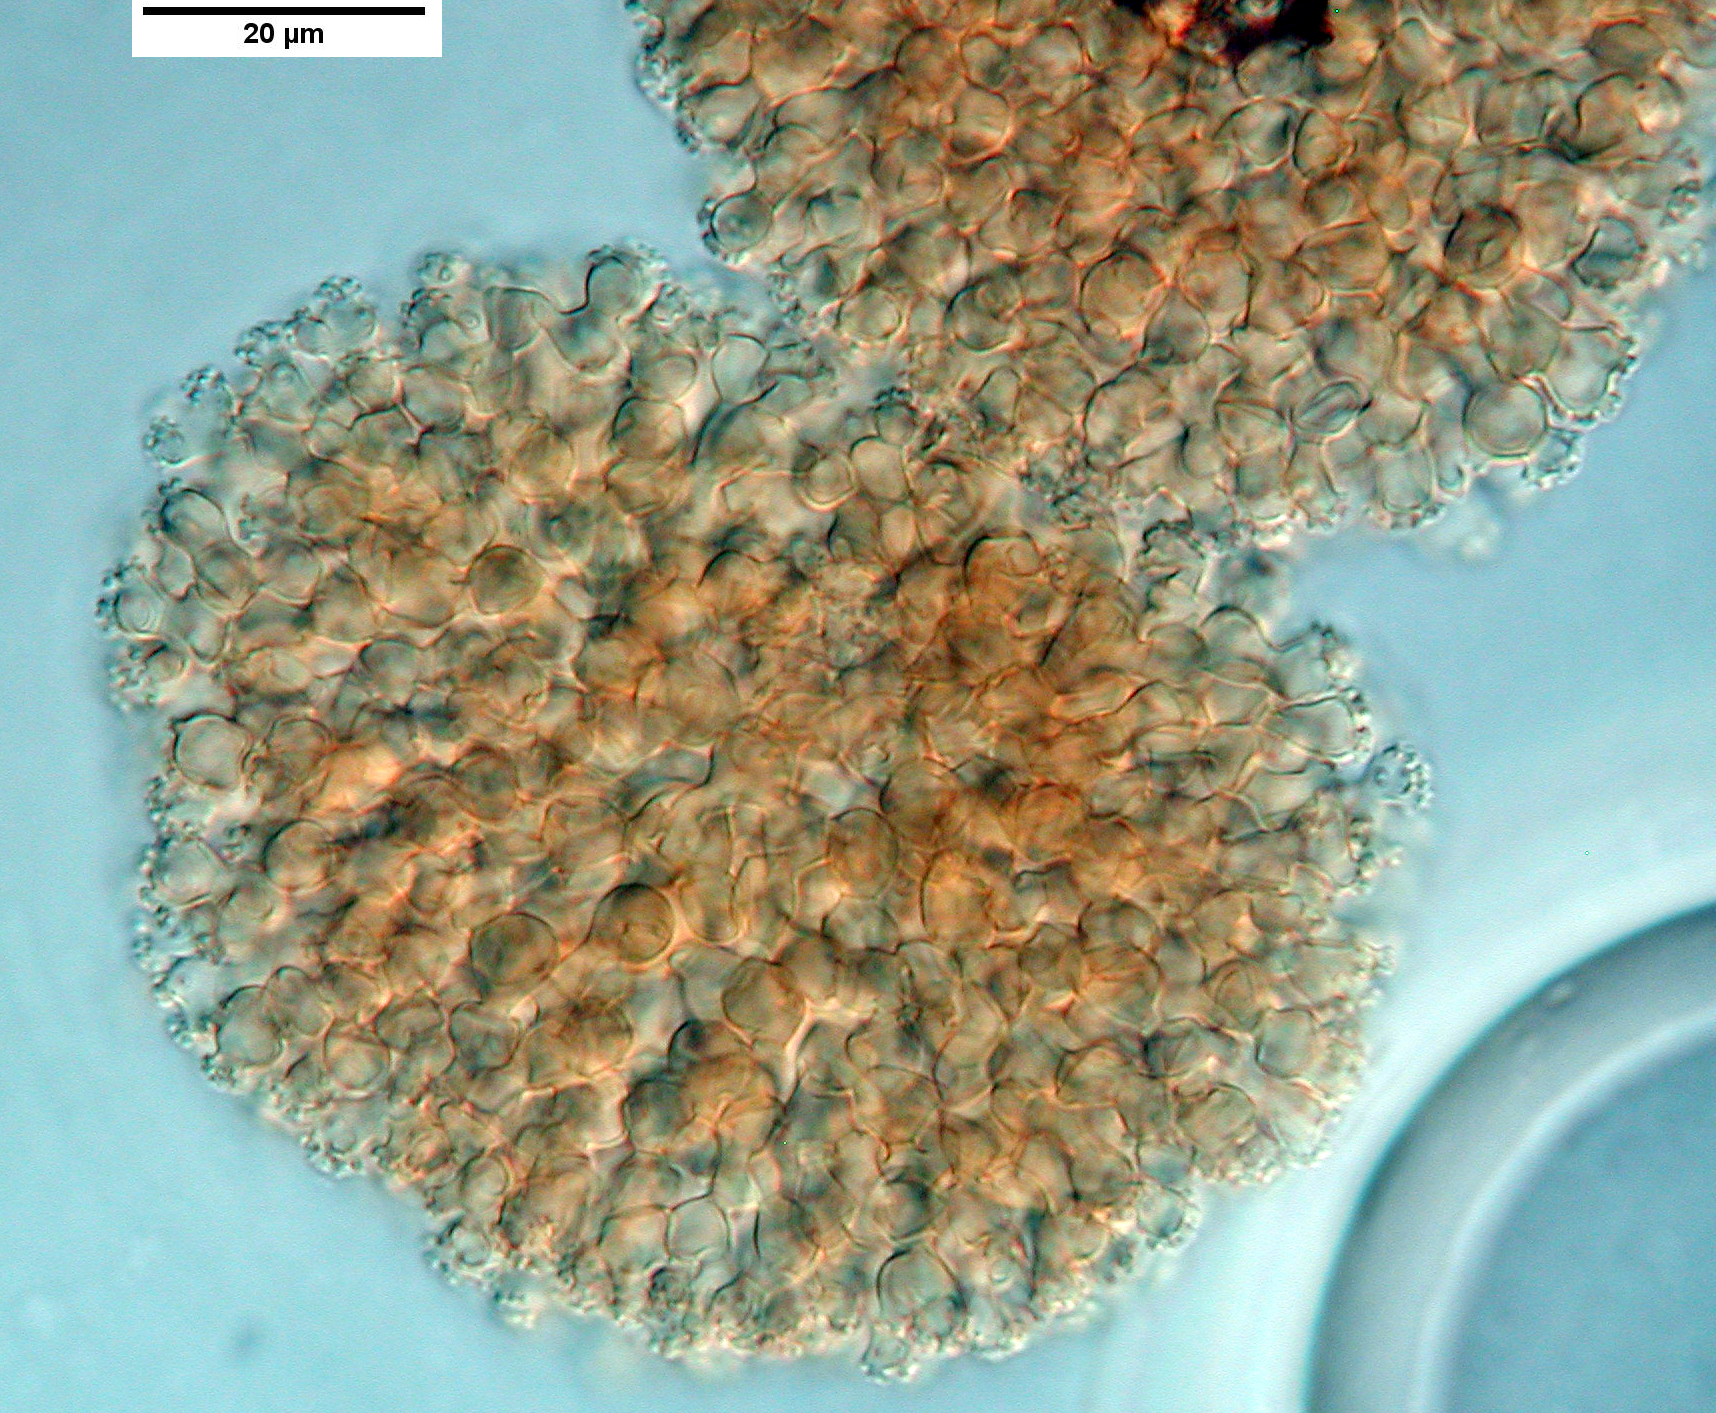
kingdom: Fungi
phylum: Ascomycota
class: Sordariomycetes
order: Pisorisporiales
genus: Brocchiosphaera
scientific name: Brocchiosphaera microspora
